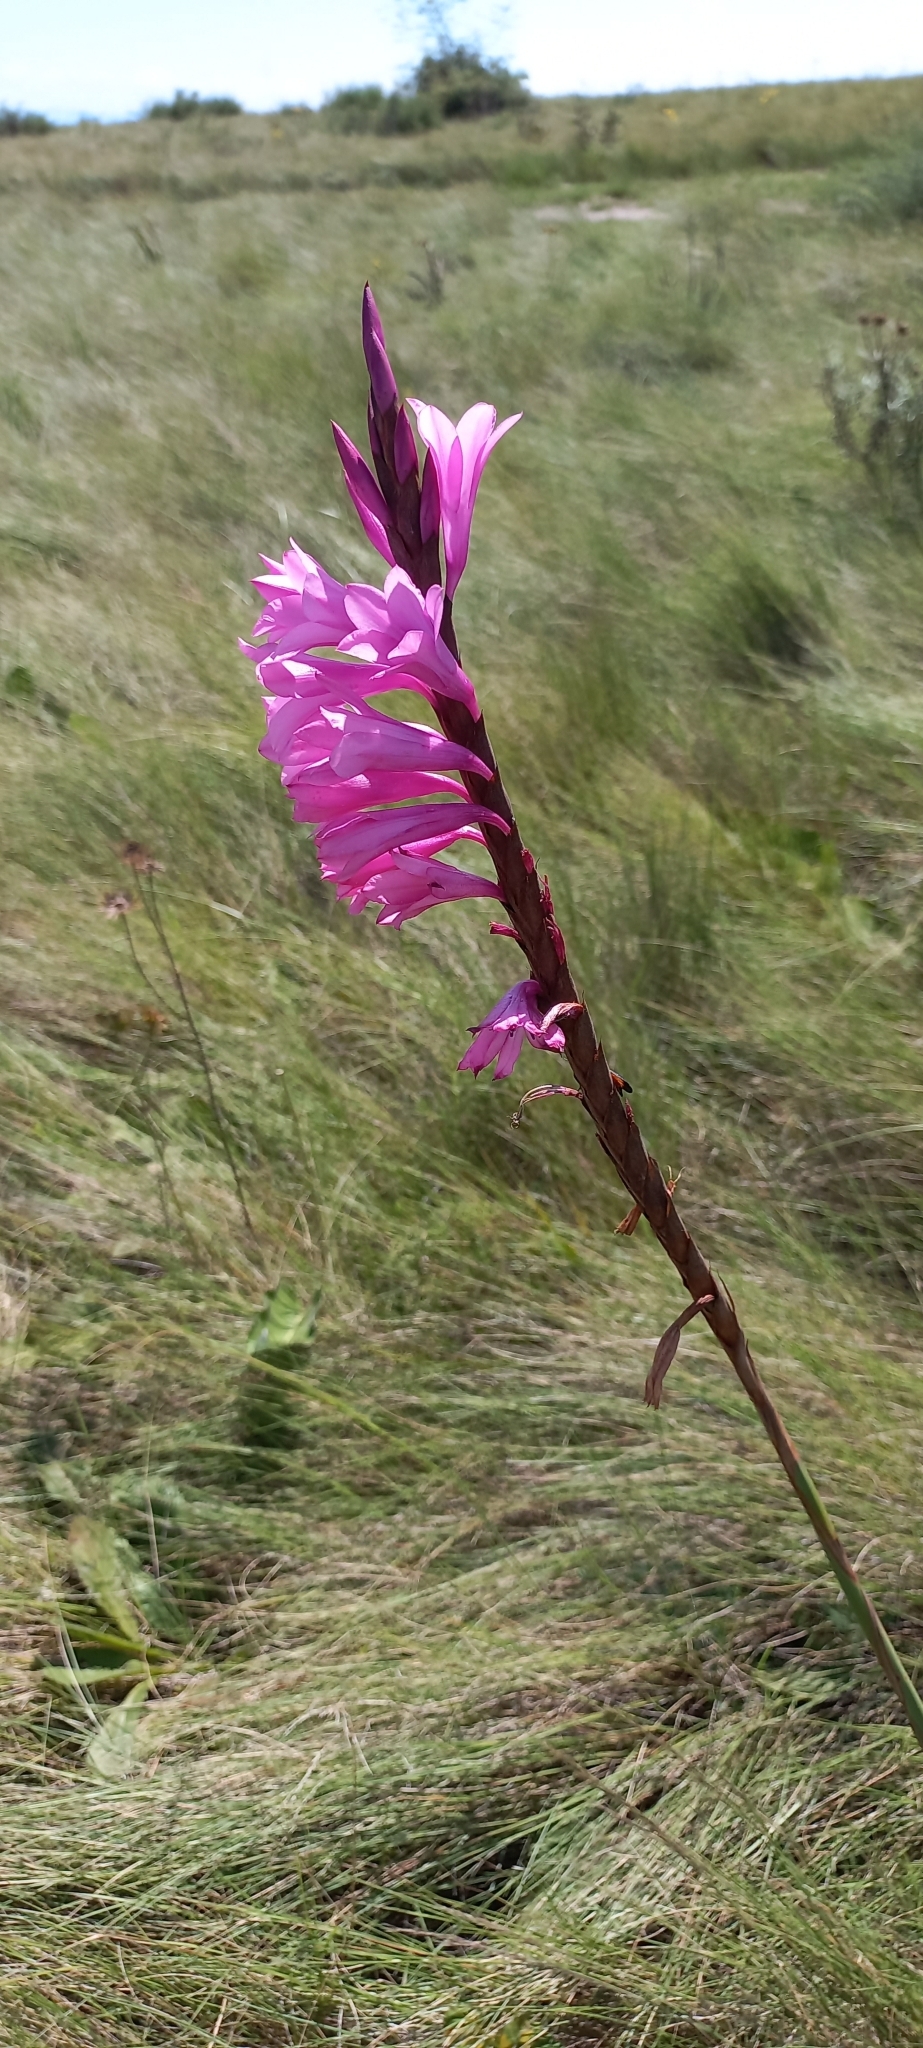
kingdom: Plantae
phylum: Tracheophyta
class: Liliopsida
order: Asparagales
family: Iridaceae
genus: Watsonia
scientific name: Watsonia densiflora
